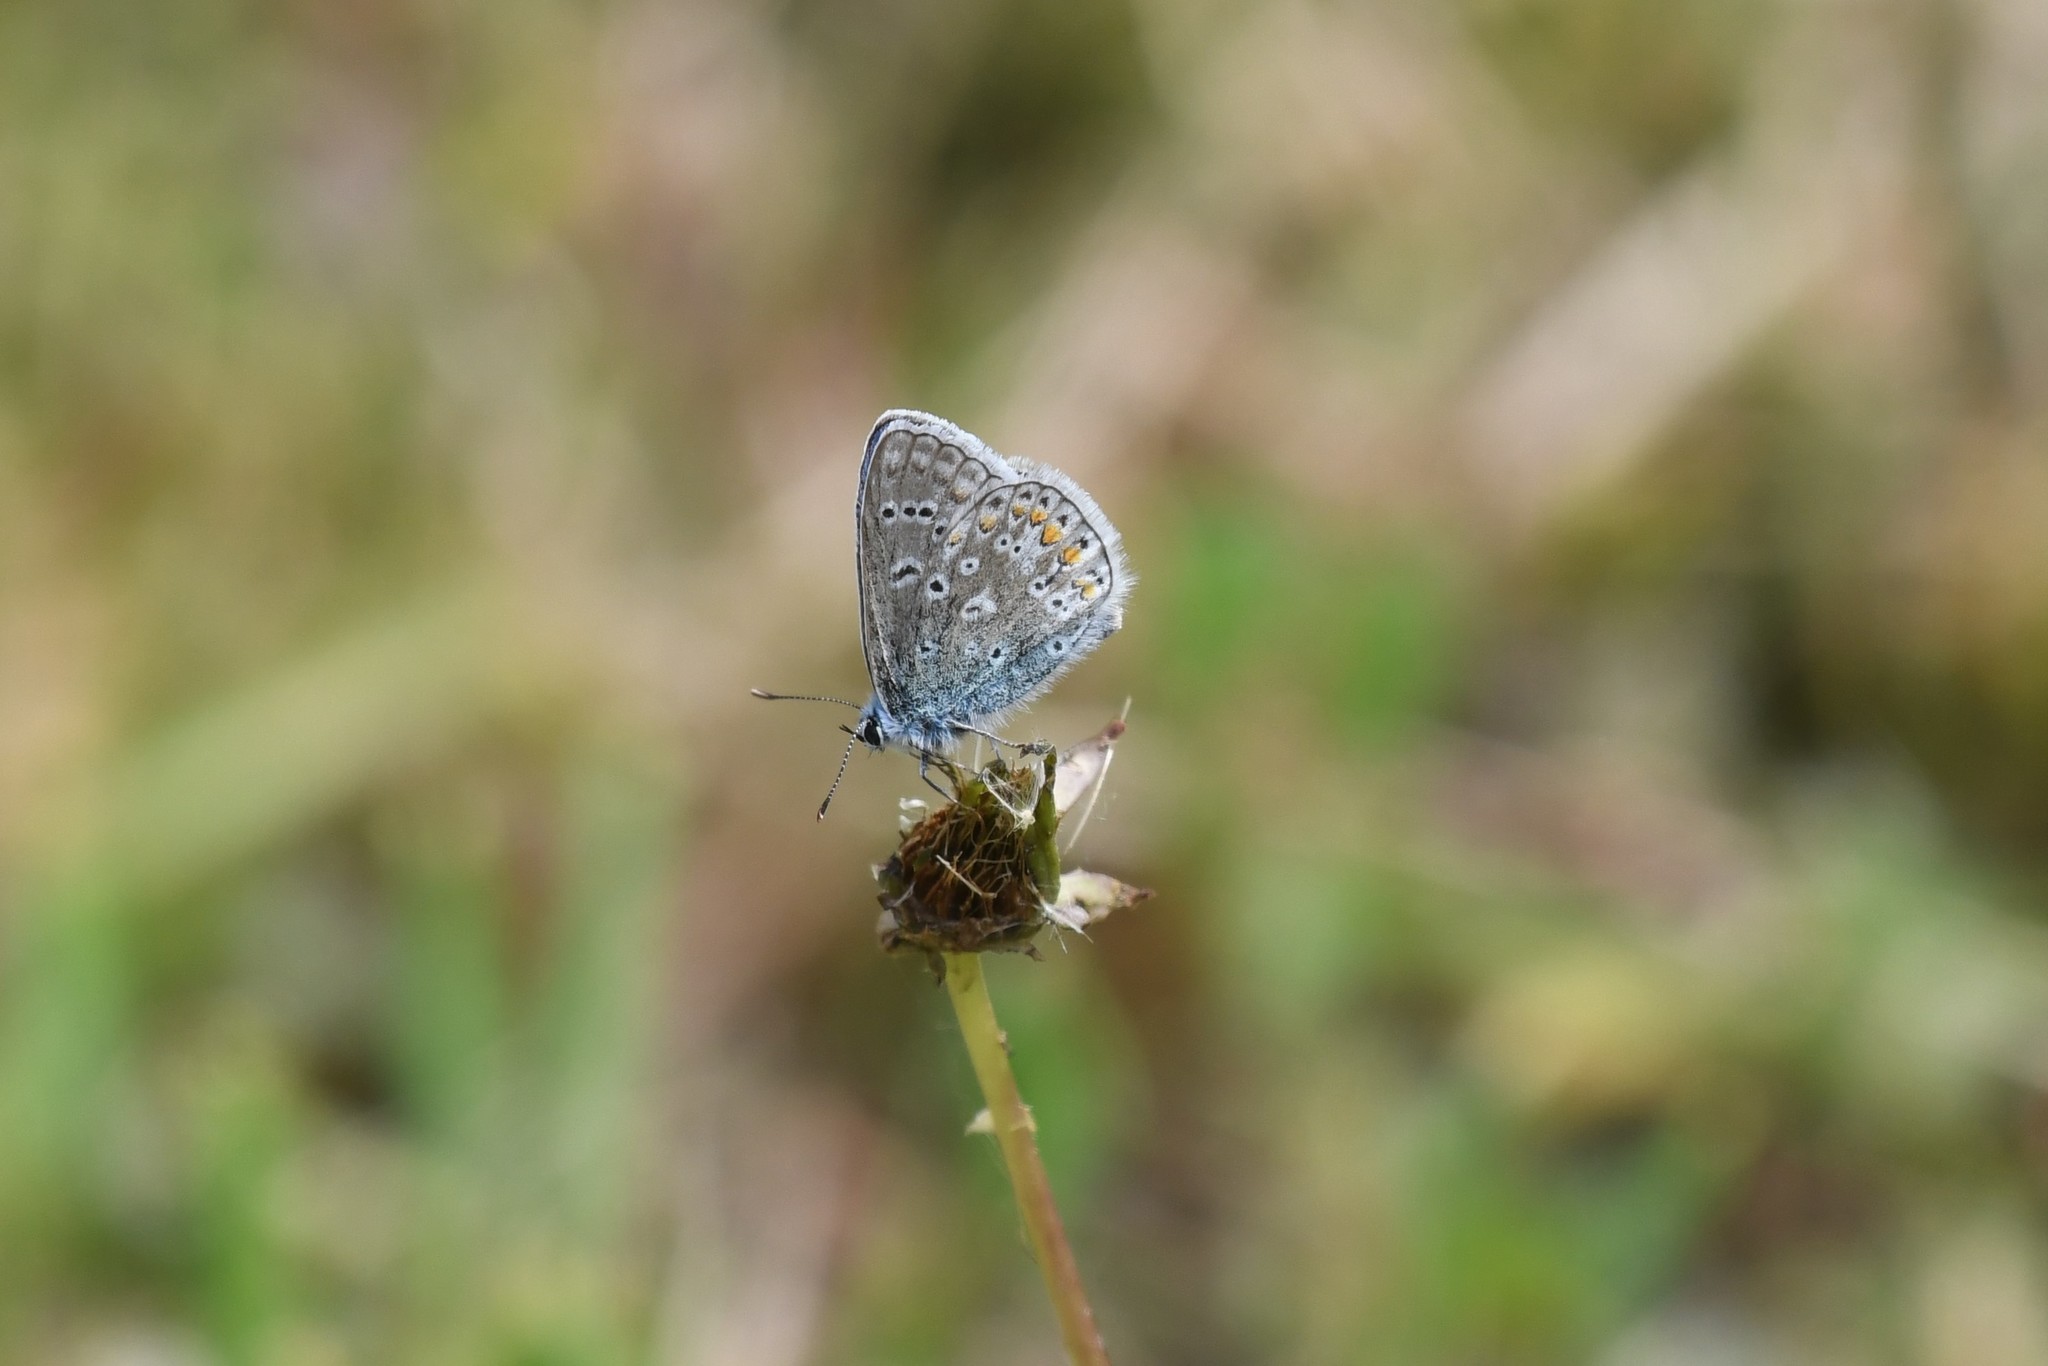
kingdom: Animalia
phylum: Arthropoda
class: Insecta
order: Lepidoptera
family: Lycaenidae
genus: Polyommatus
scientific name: Polyommatus icarus
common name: Common blue
